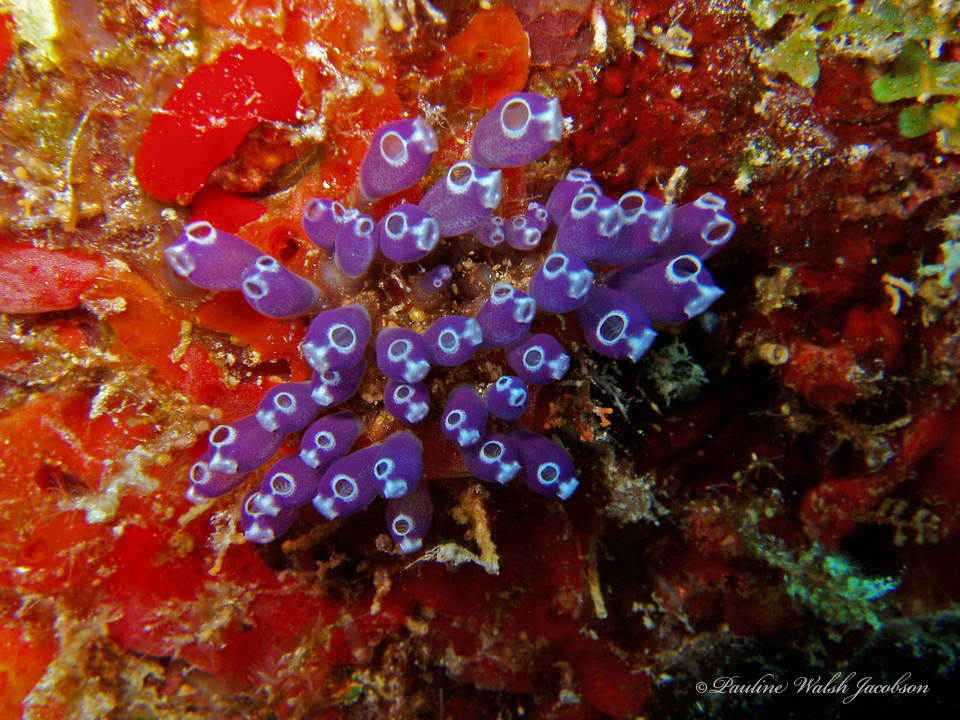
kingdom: Animalia
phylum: Chordata
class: Ascidiacea
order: Aplousobranchia
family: Clavelinidae
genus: Clavelina
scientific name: Clavelina puertosecensis
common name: Blue bell tunicate
